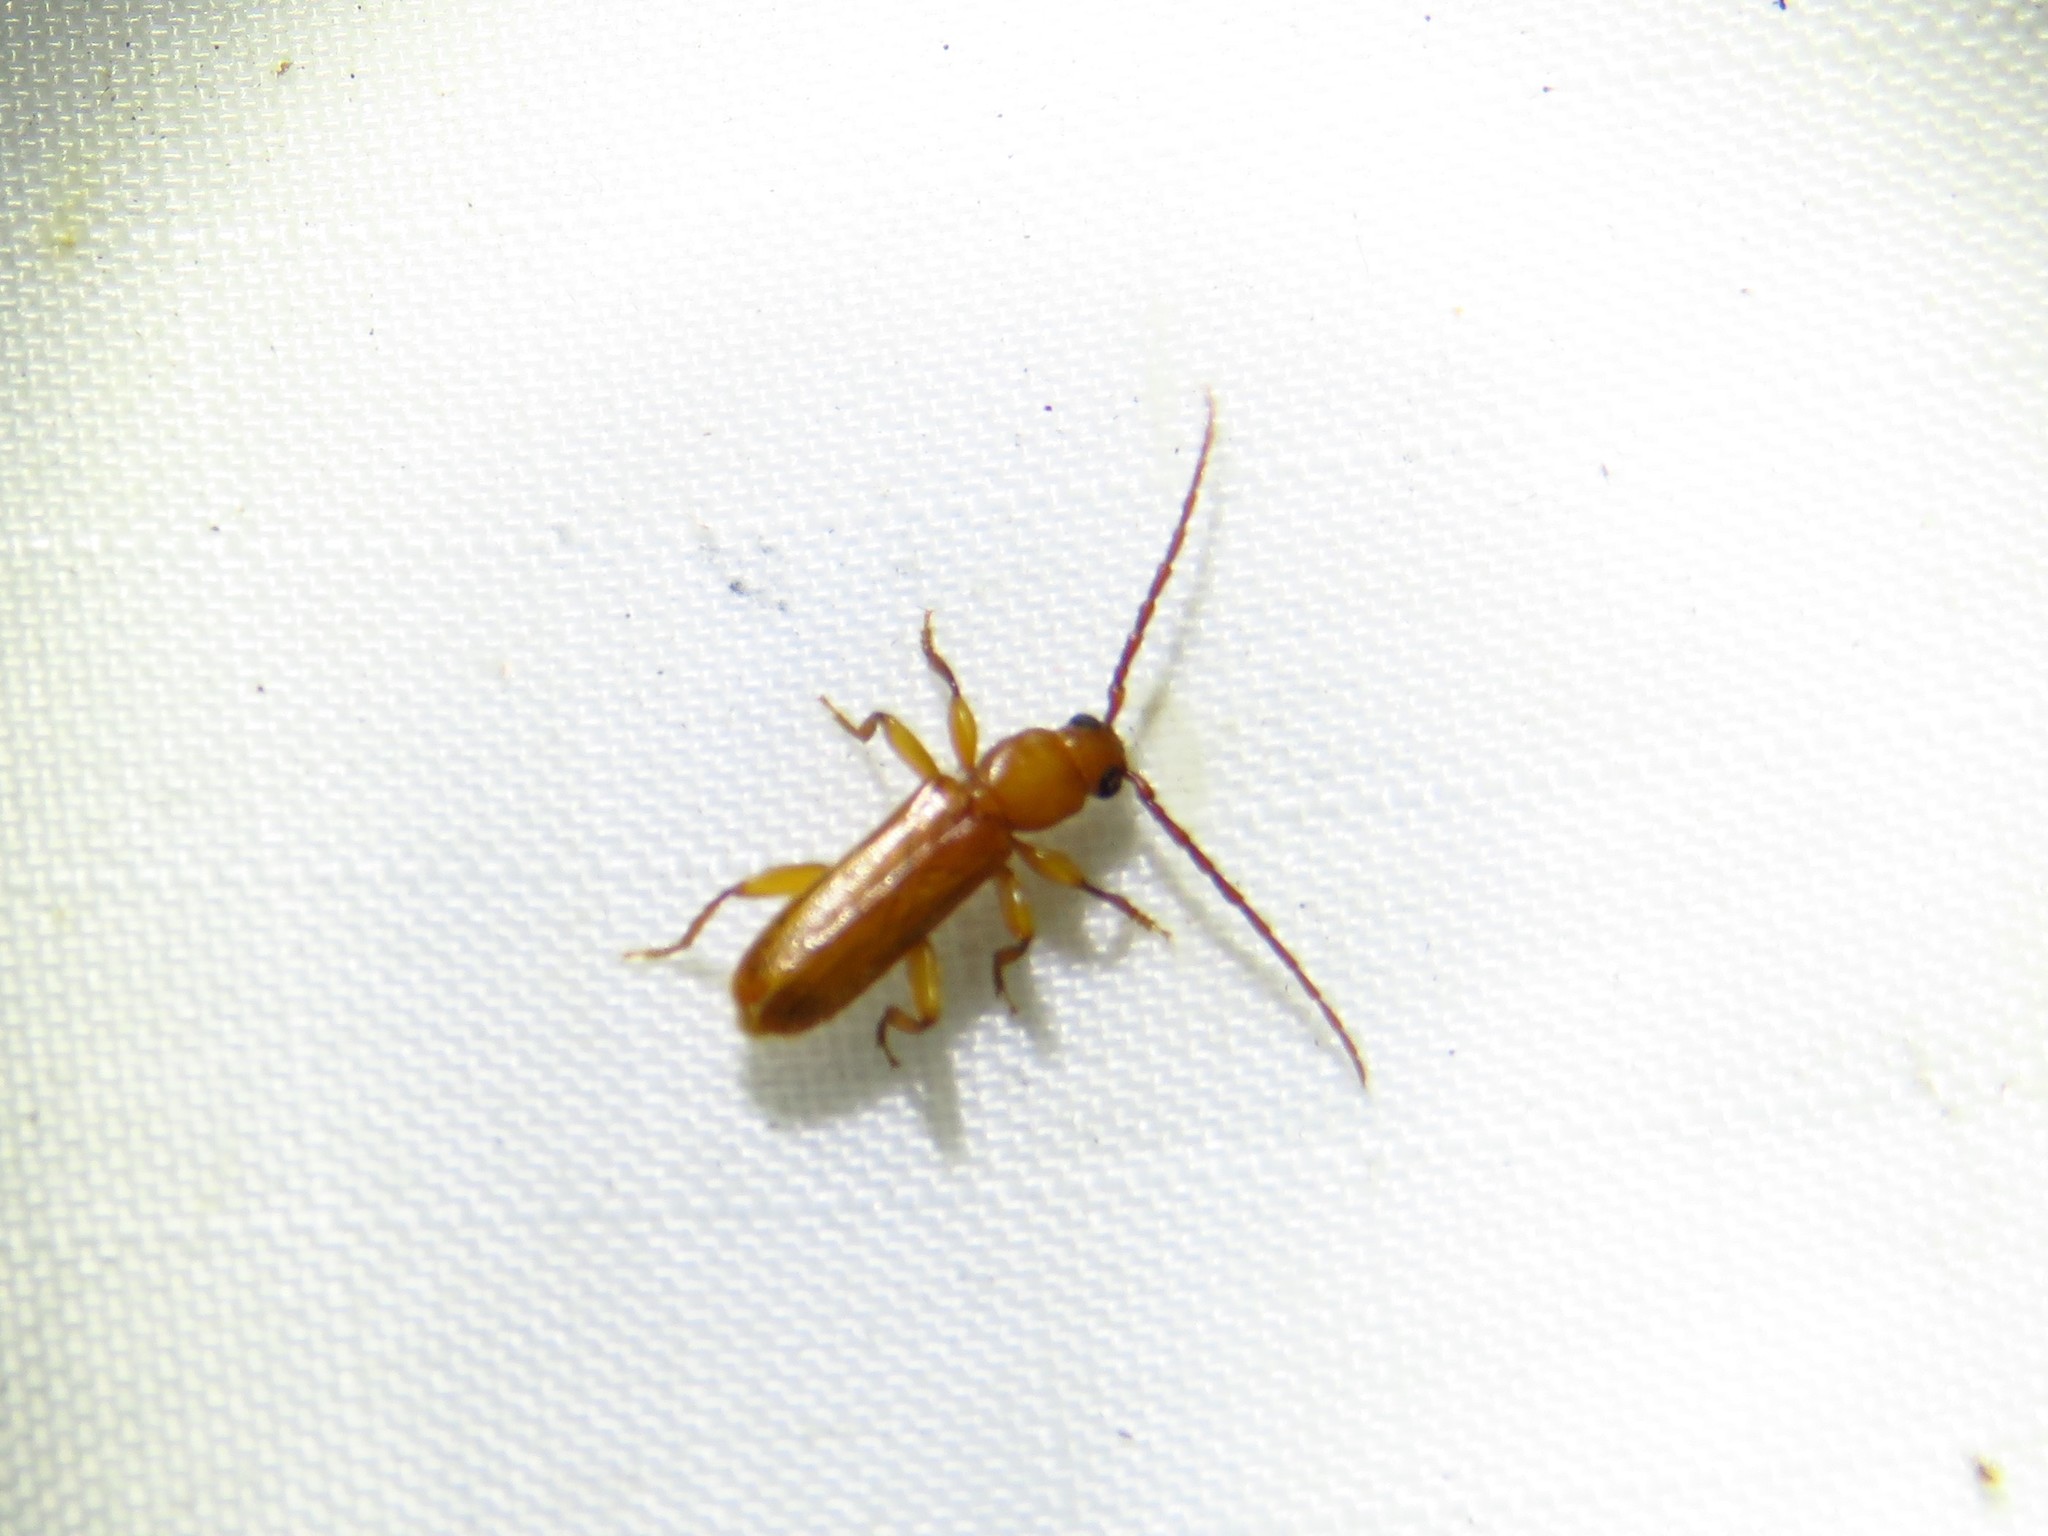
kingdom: Animalia
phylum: Arthropoda
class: Insecta
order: Coleoptera
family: Cerambycidae
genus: Smodicum
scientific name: Smodicum cucujiforme
